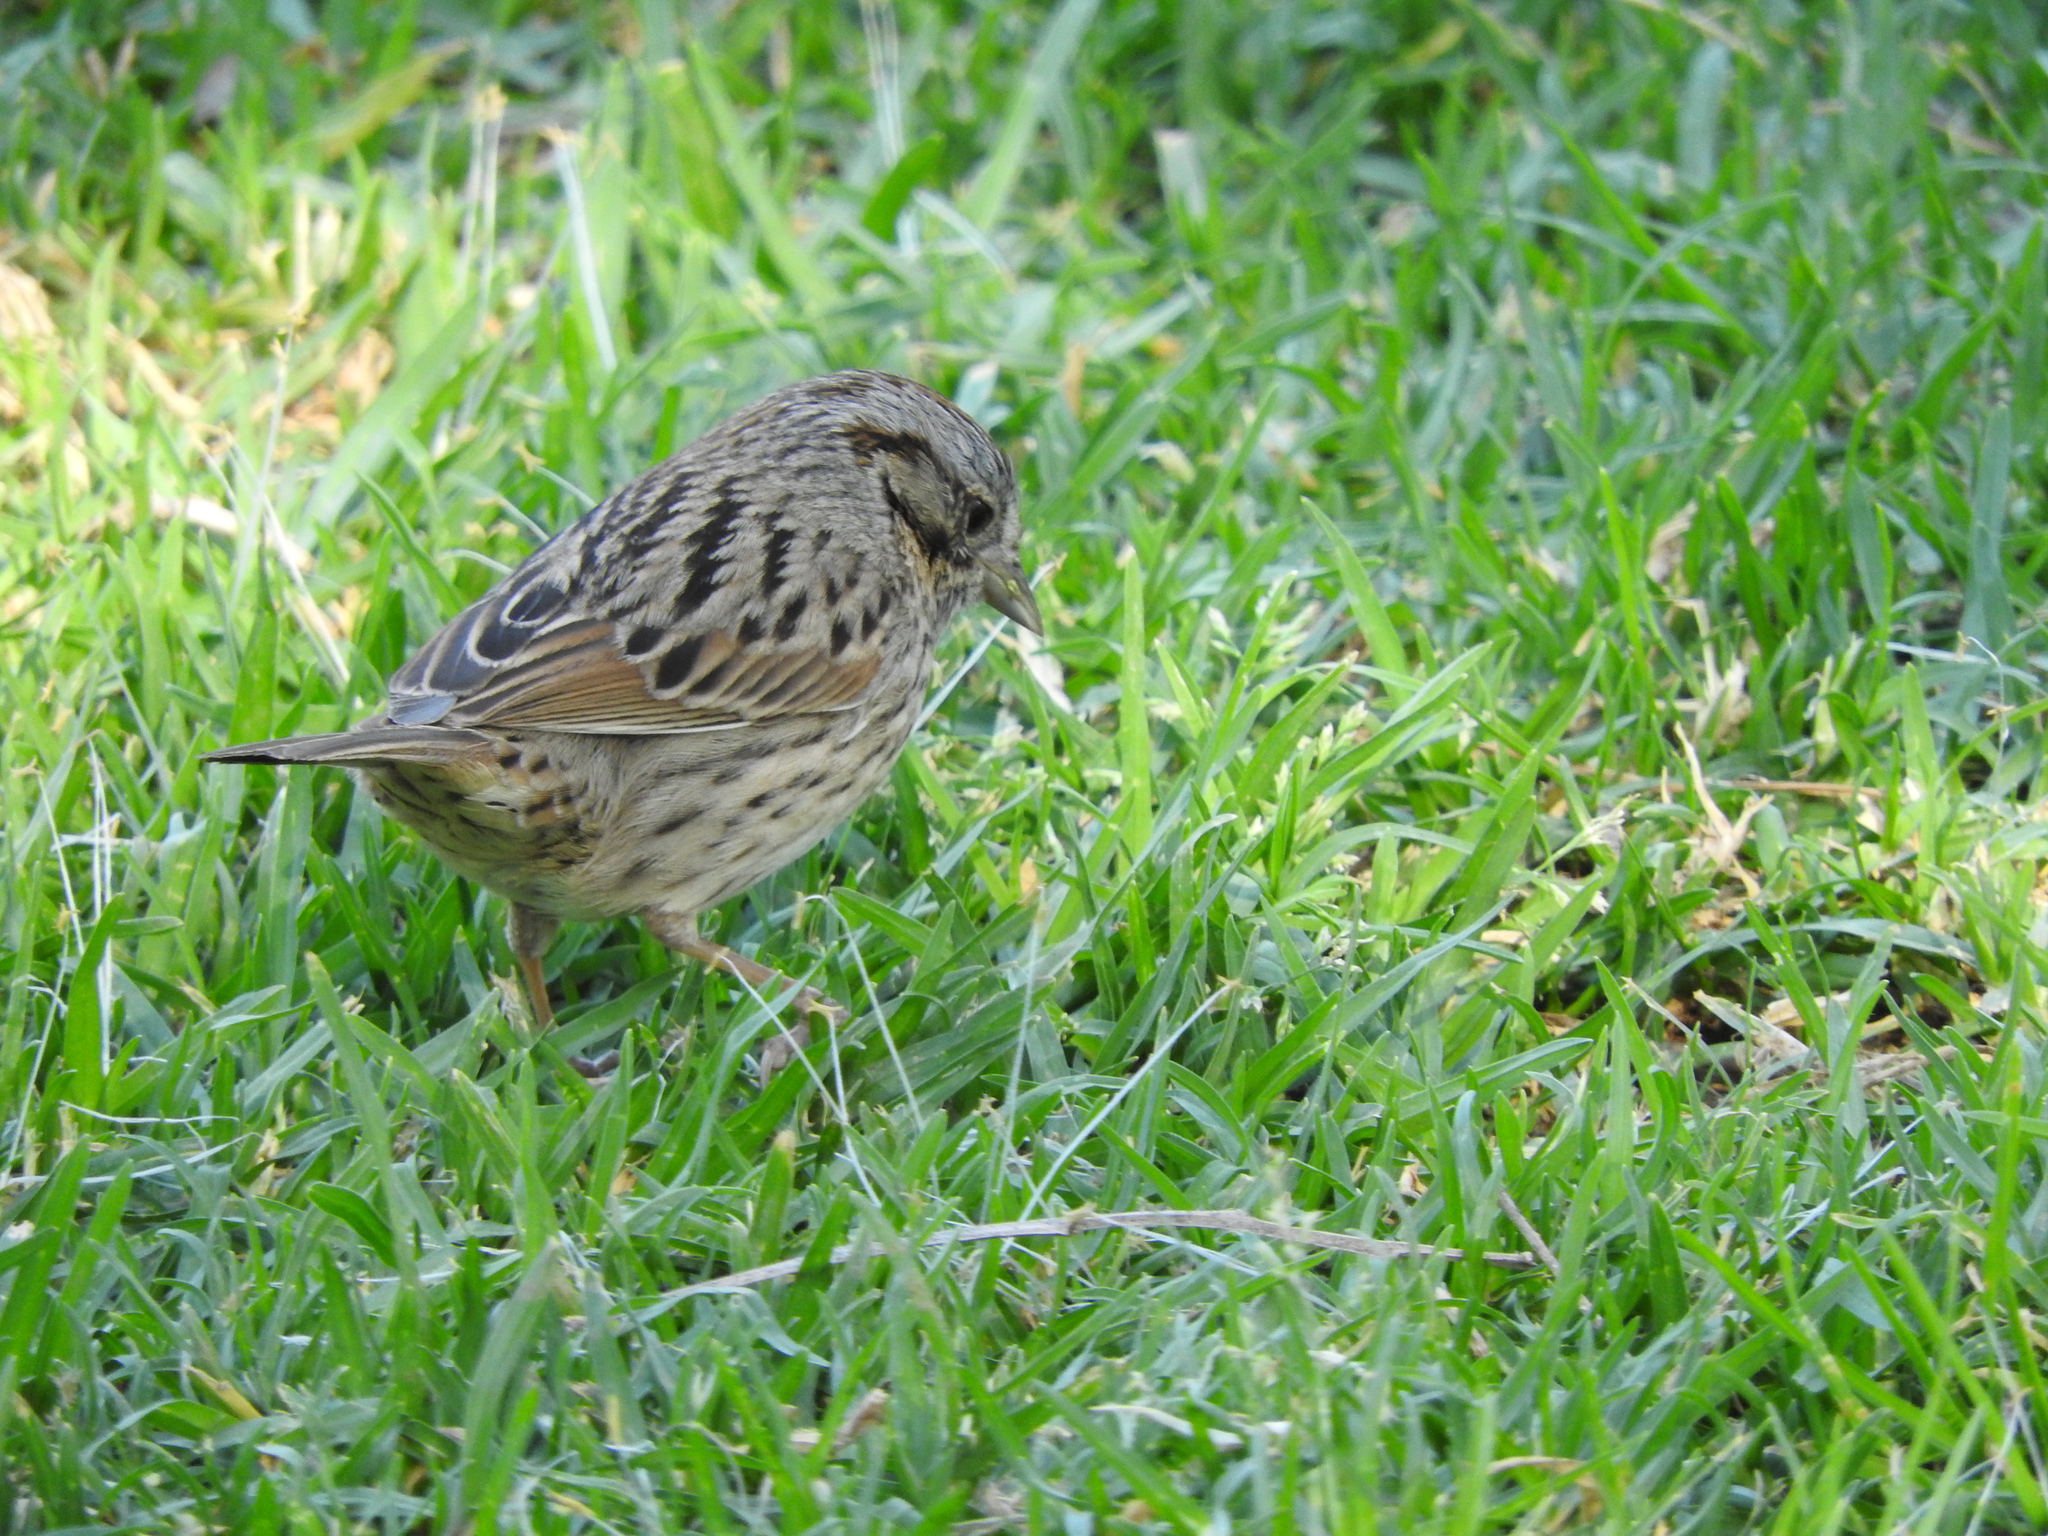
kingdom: Animalia
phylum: Chordata
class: Aves
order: Passeriformes
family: Passerellidae
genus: Melospiza
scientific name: Melospiza lincolnii
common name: Lincoln's sparrow
